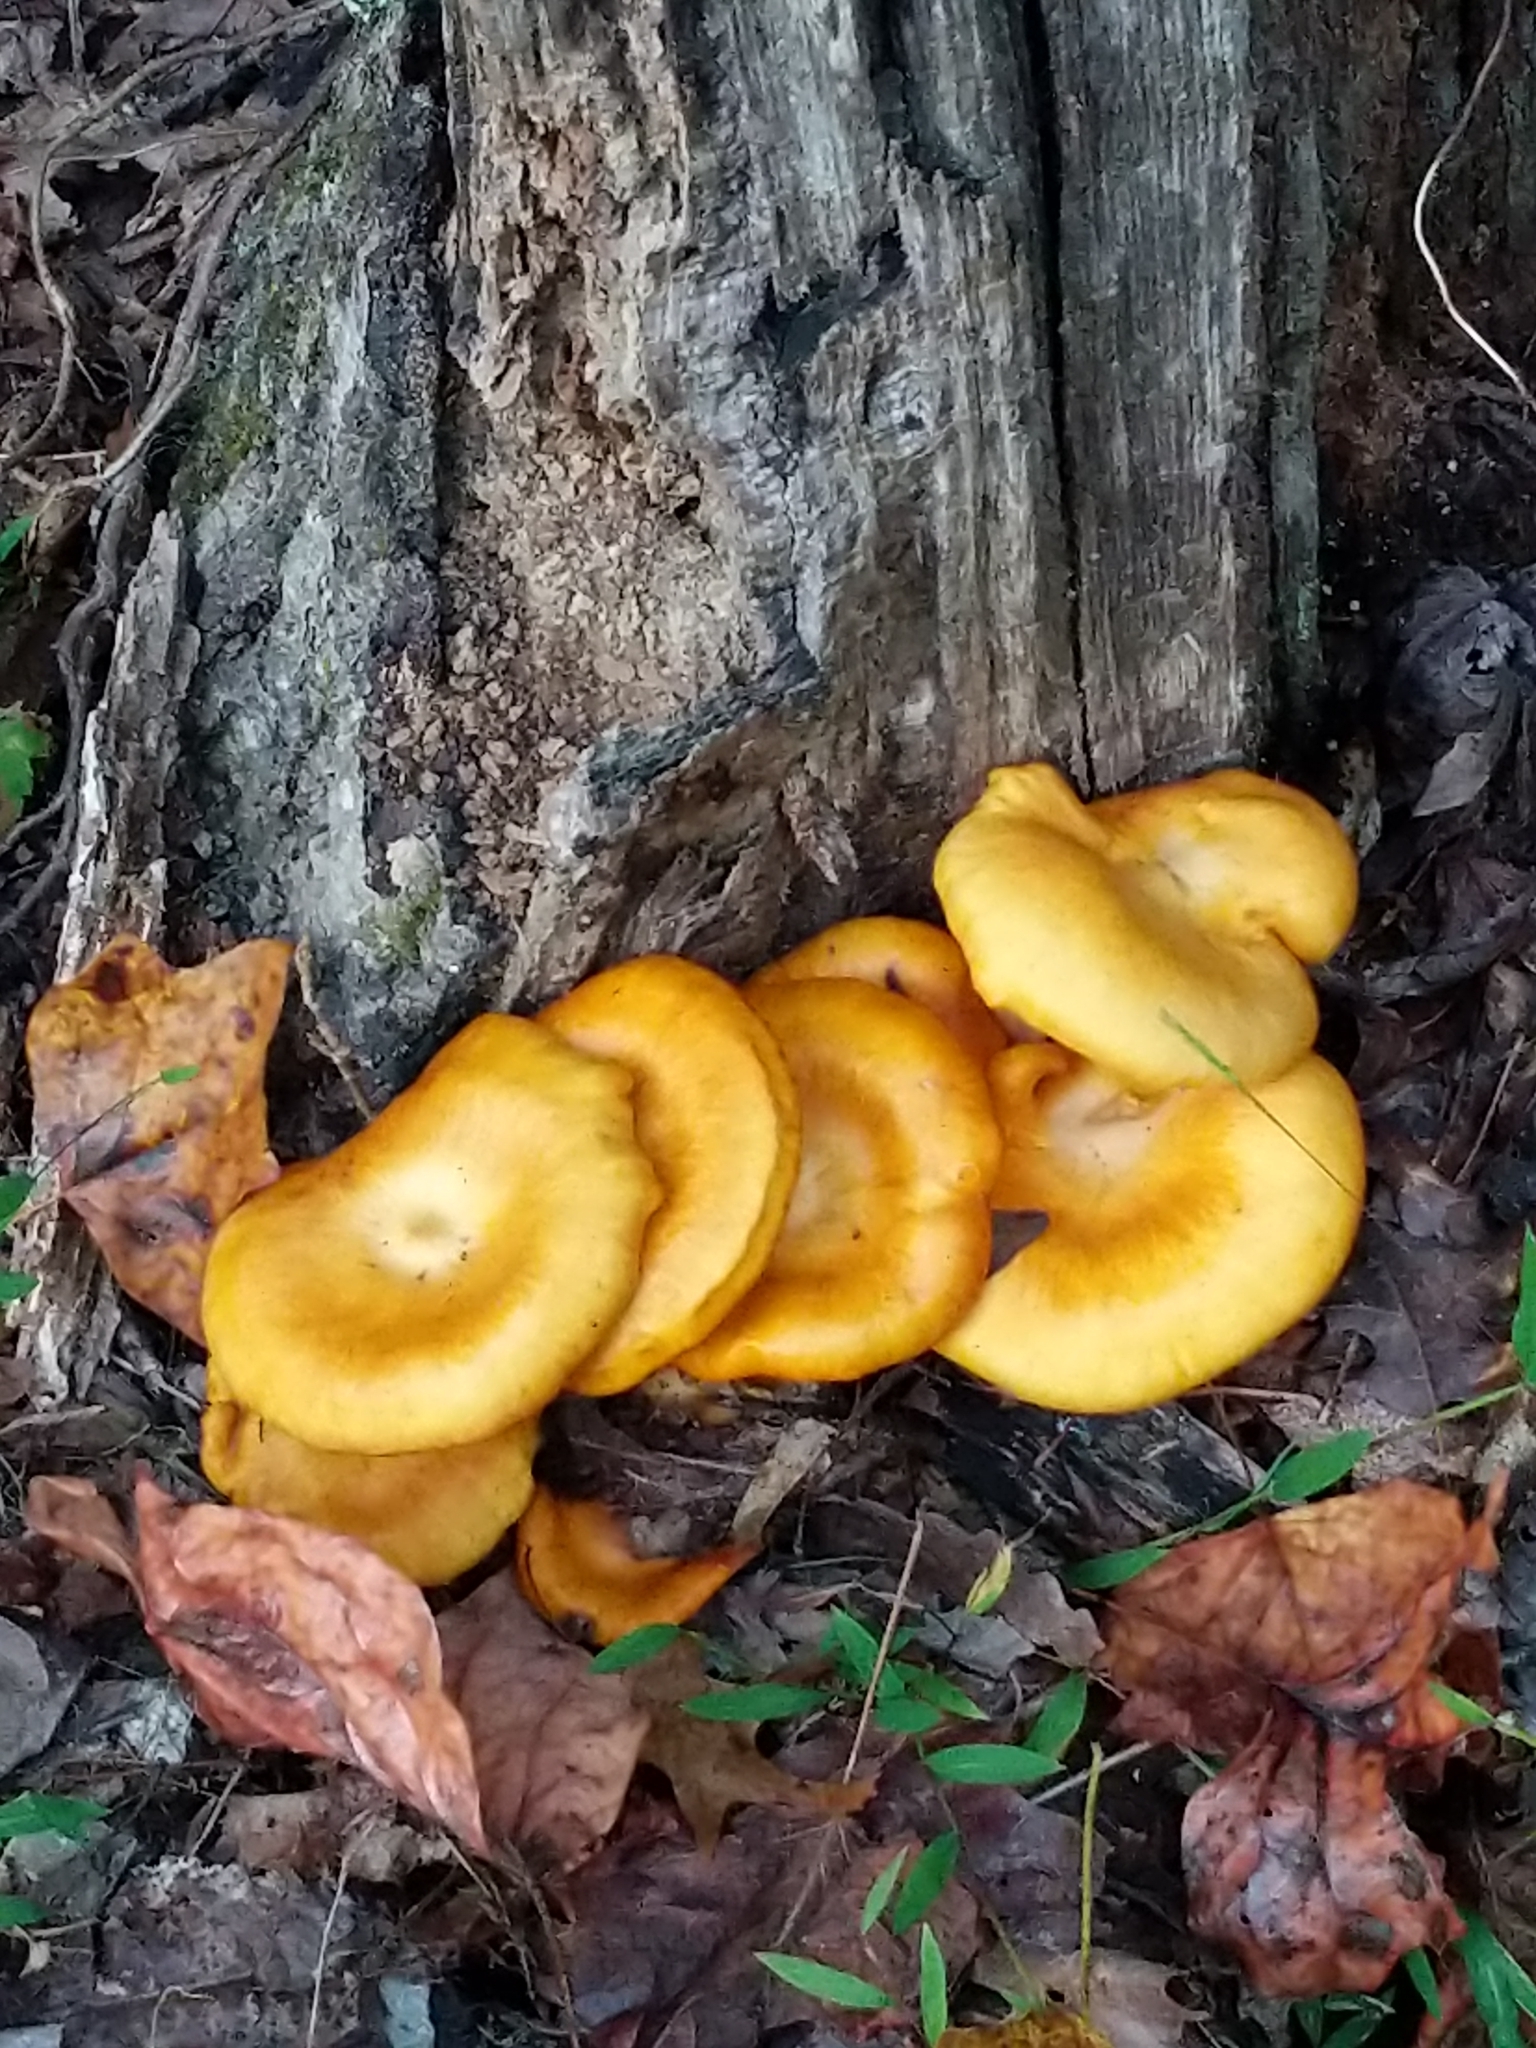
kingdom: Fungi
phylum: Basidiomycota
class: Agaricomycetes
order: Agaricales
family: Omphalotaceae
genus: Omphalotus
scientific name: Omphalotus illudens
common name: Jack o lantern
